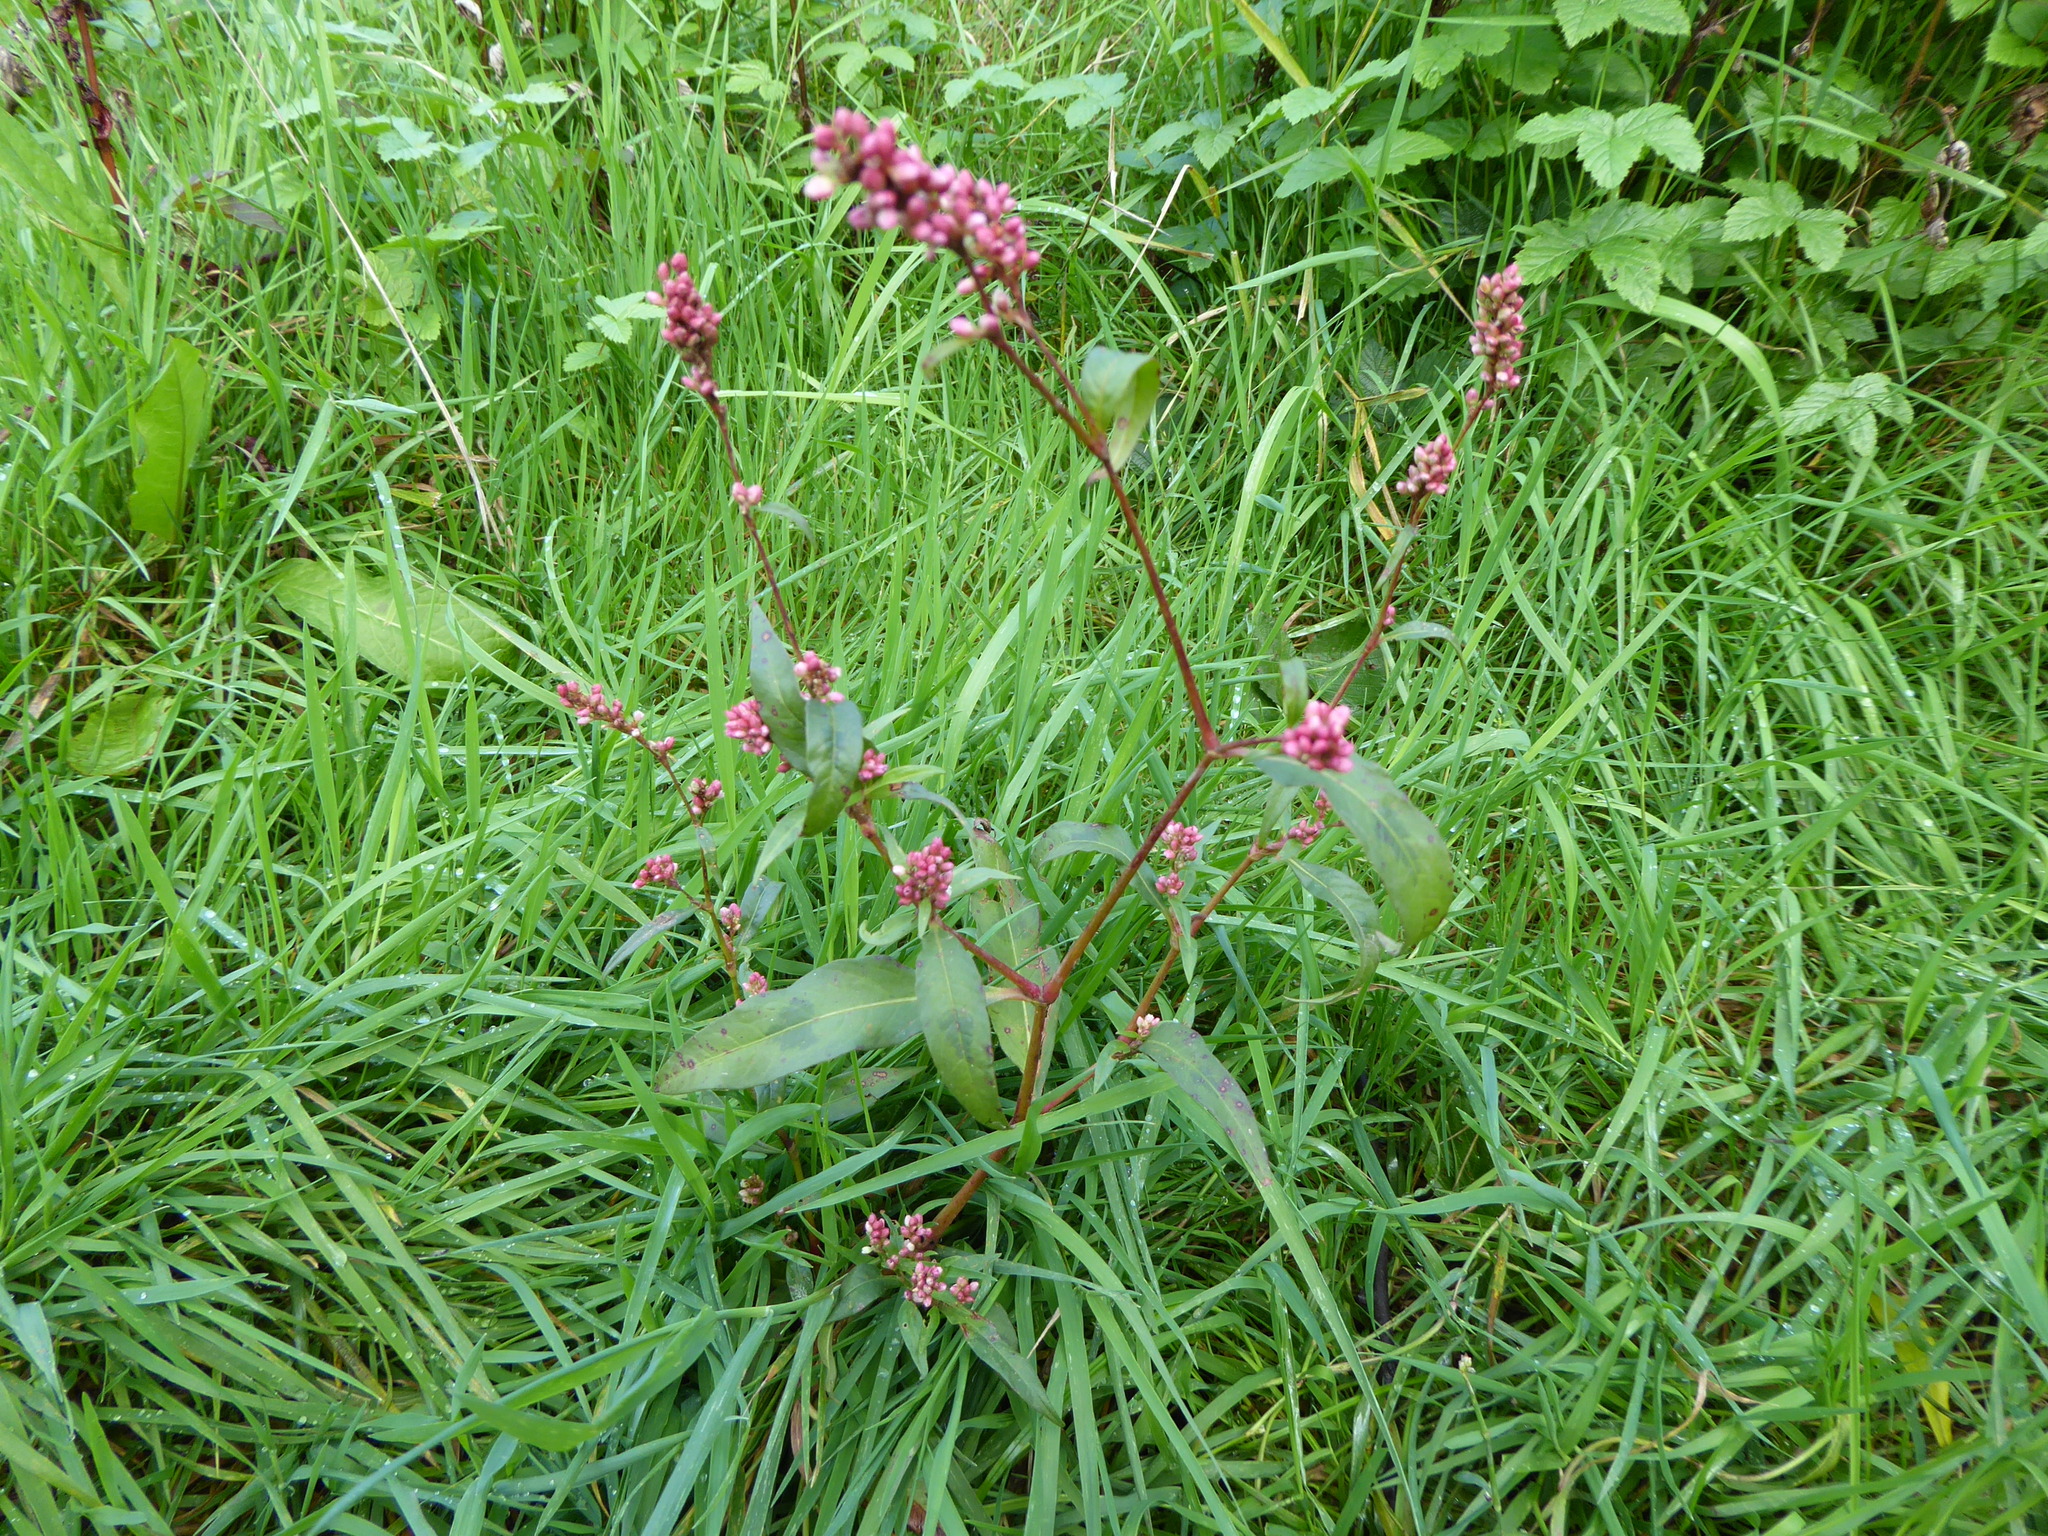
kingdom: Plantae
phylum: Tracheophyta
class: Magnoliopsida
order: Caryophyllales
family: Polygonaceae
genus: Persicaria
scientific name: Persicaria maculosa
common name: Redshank
